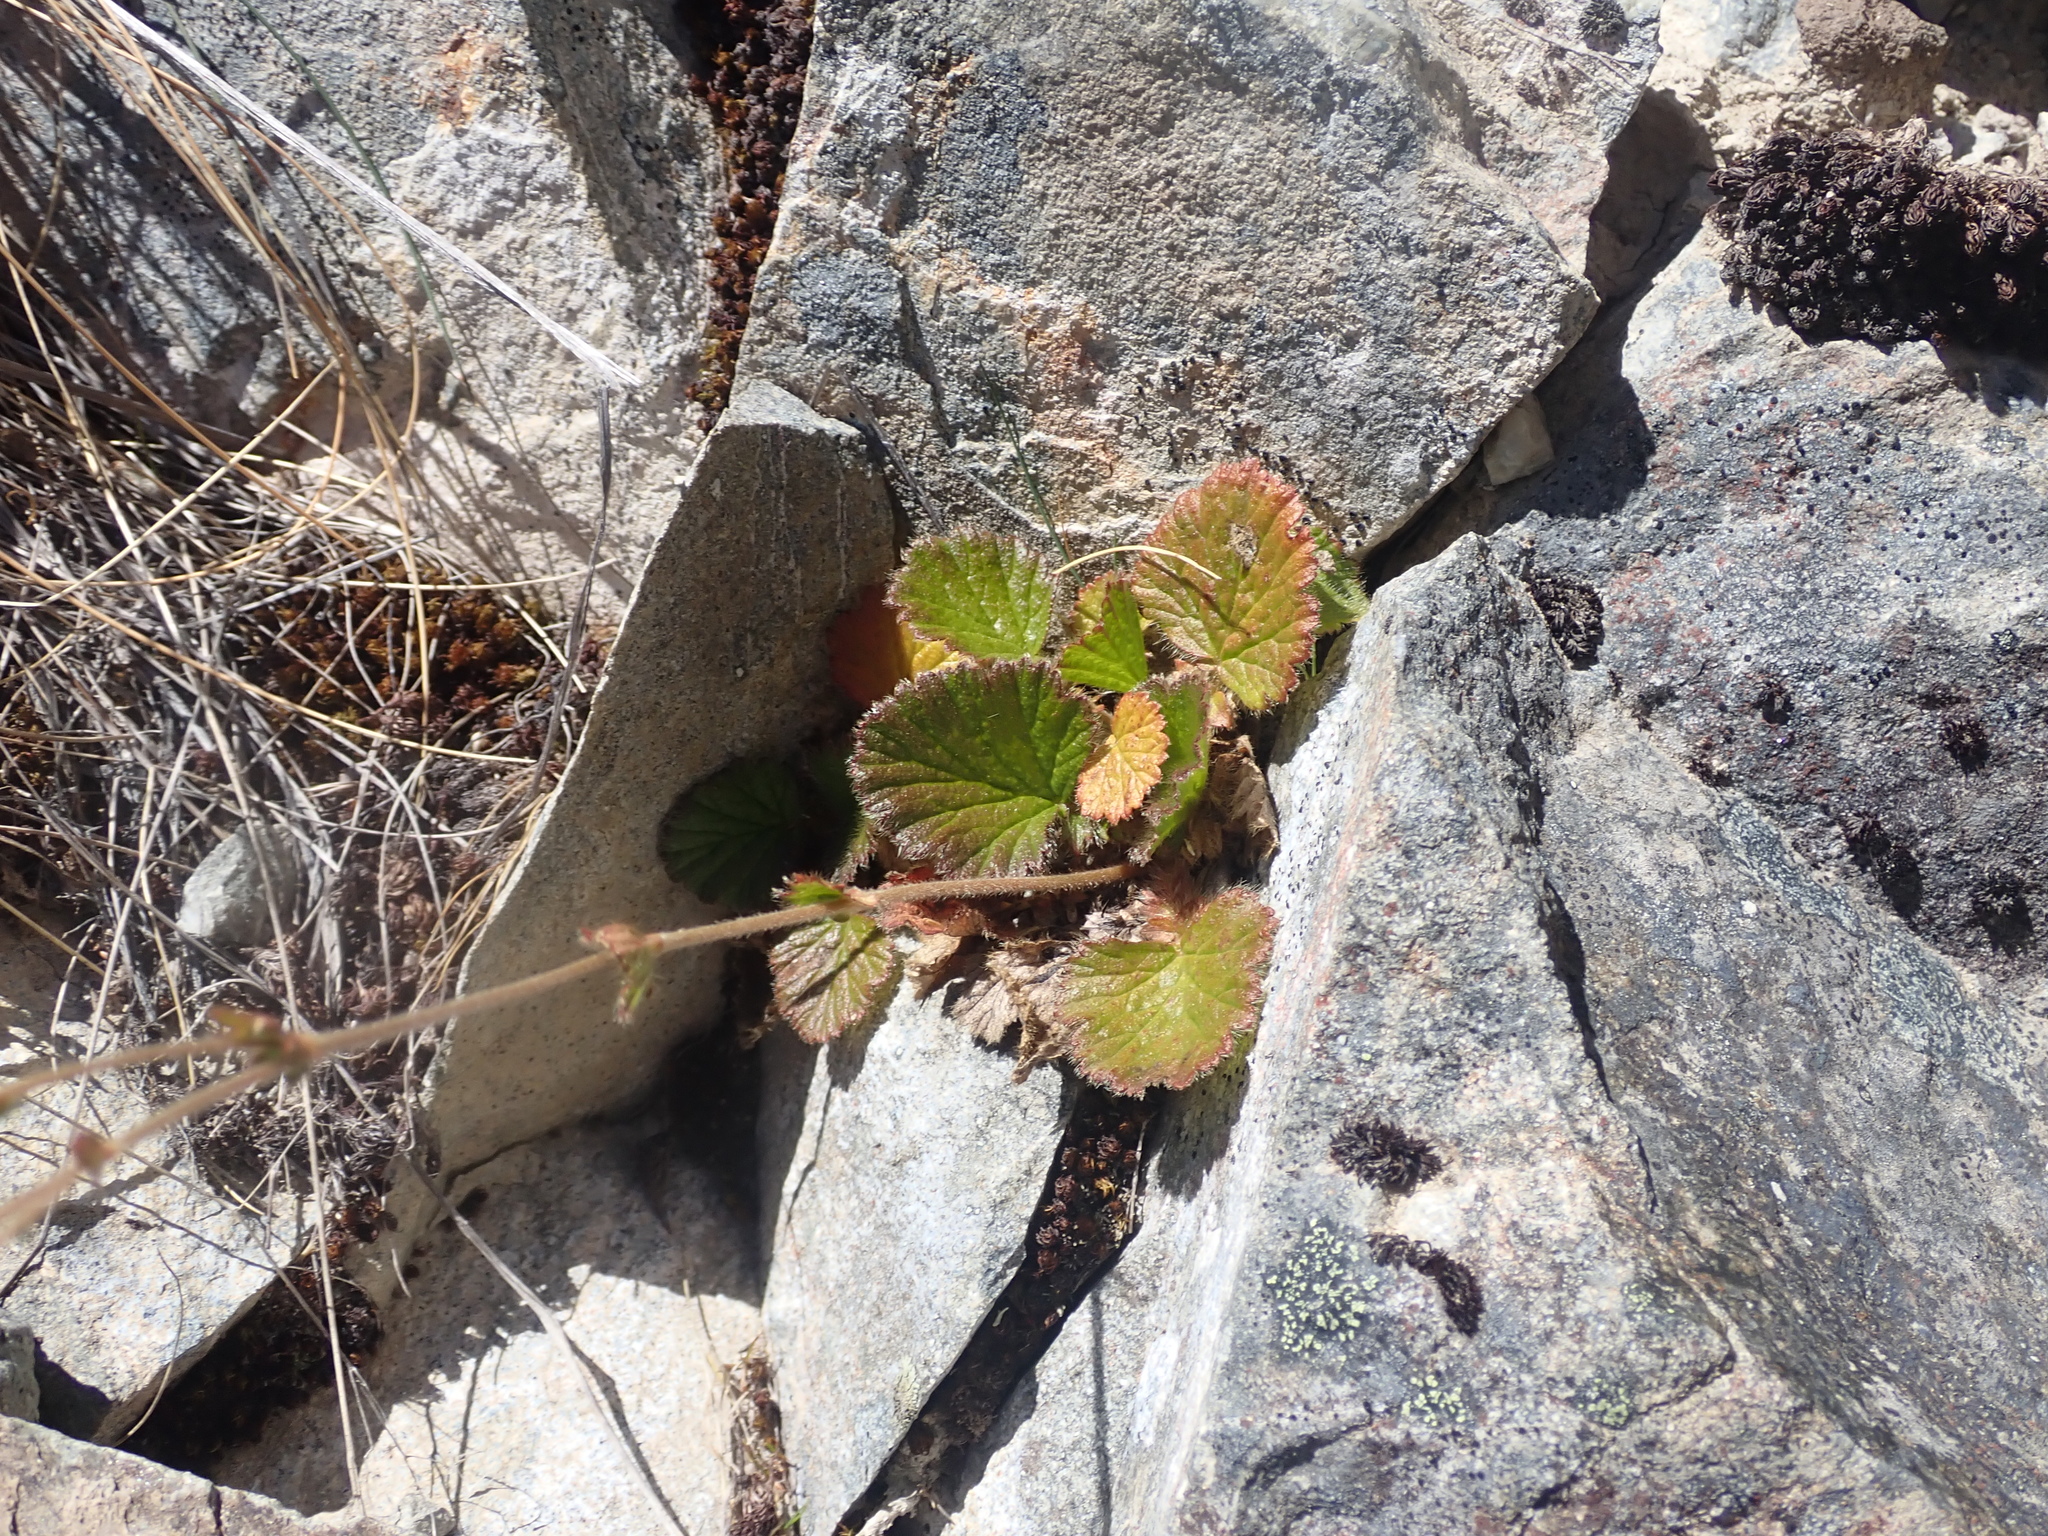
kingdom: Plantae
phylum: Tracheophyta
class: Magnoliopsida
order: Rosales
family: Rosaceae
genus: Geum
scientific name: Geum cockaynei
